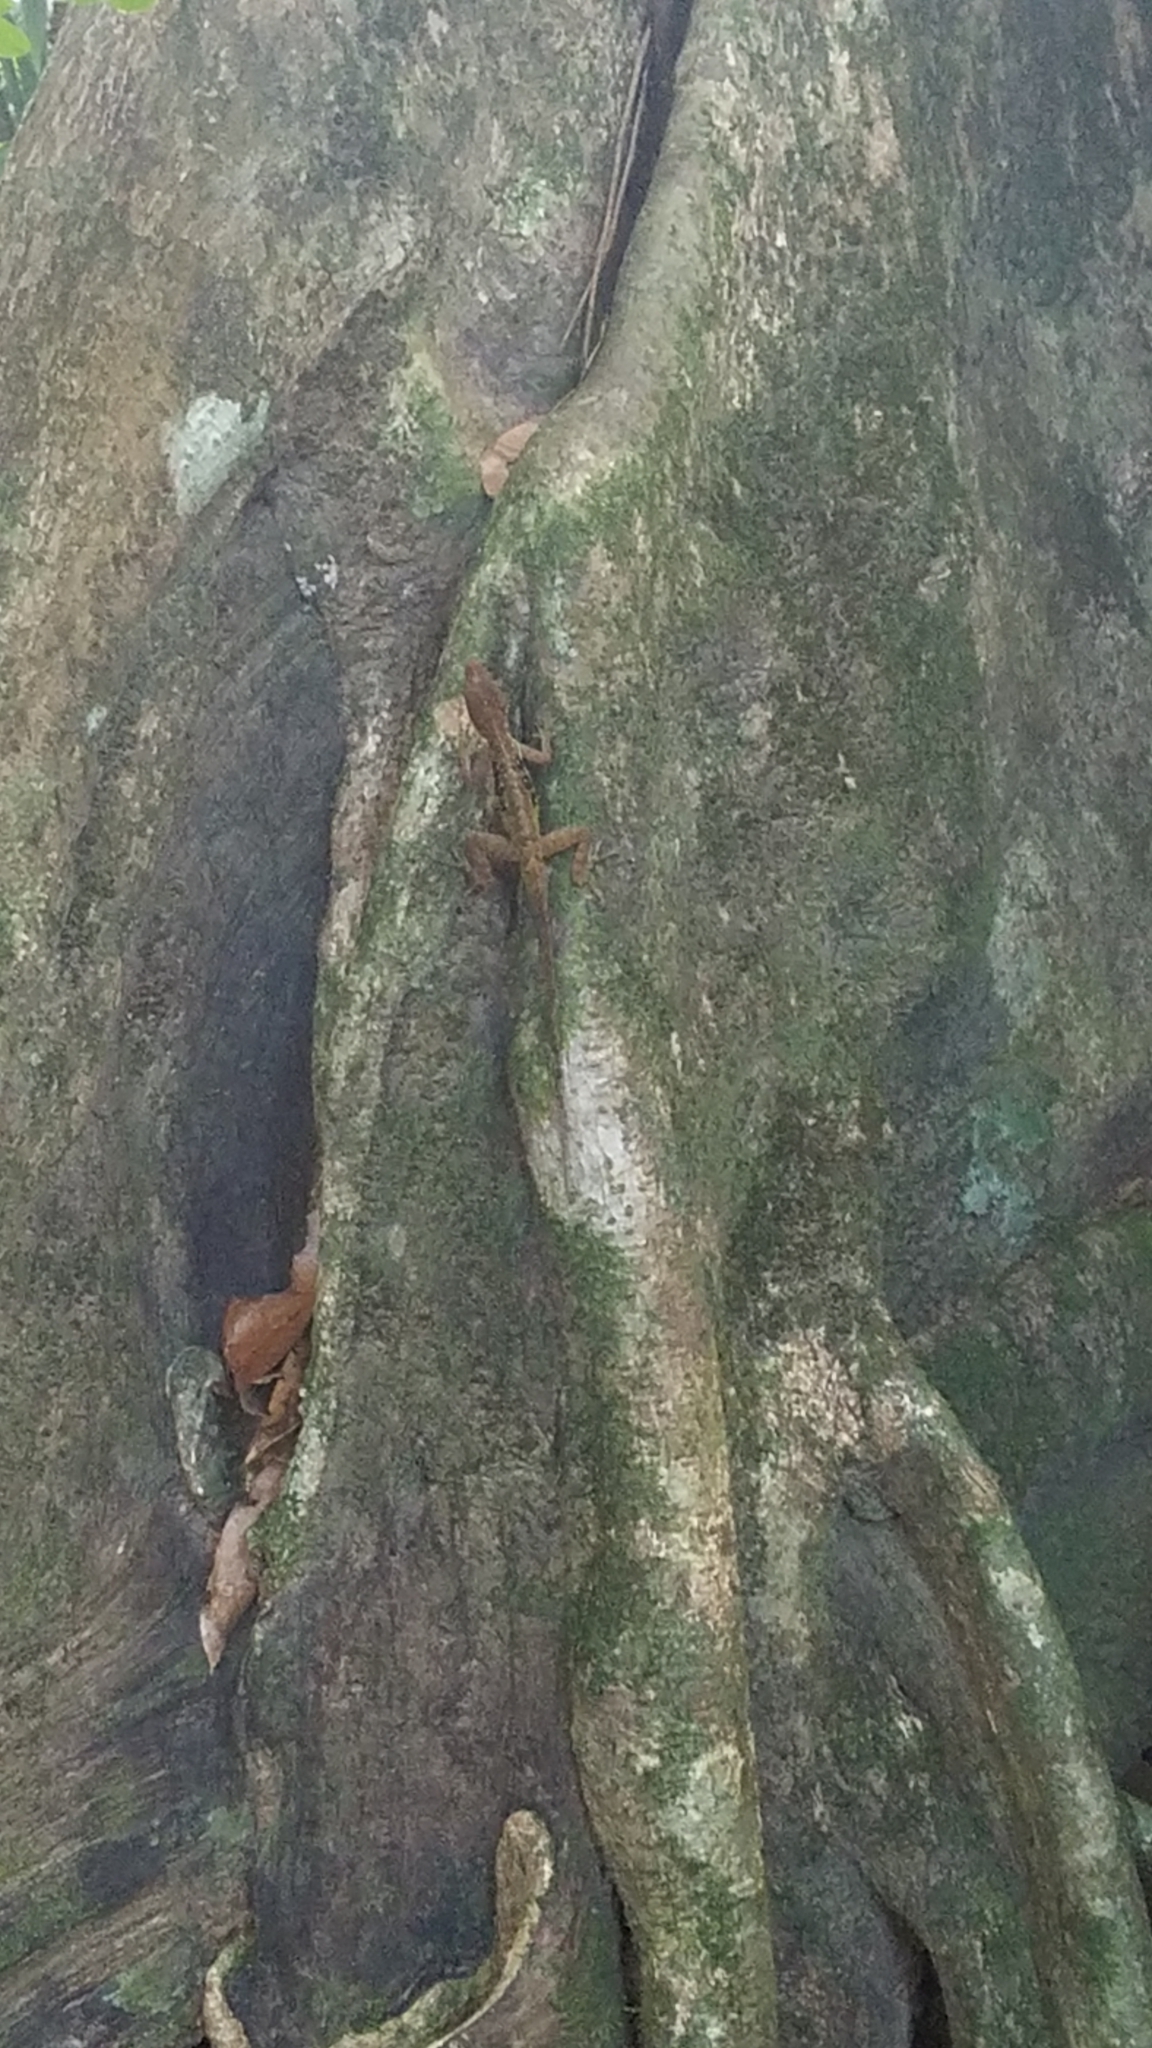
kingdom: Animalia
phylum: Chordata
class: Squamata
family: Dactyloidae
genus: Anolis
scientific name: Anolis oculatus
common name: Dominica anole
